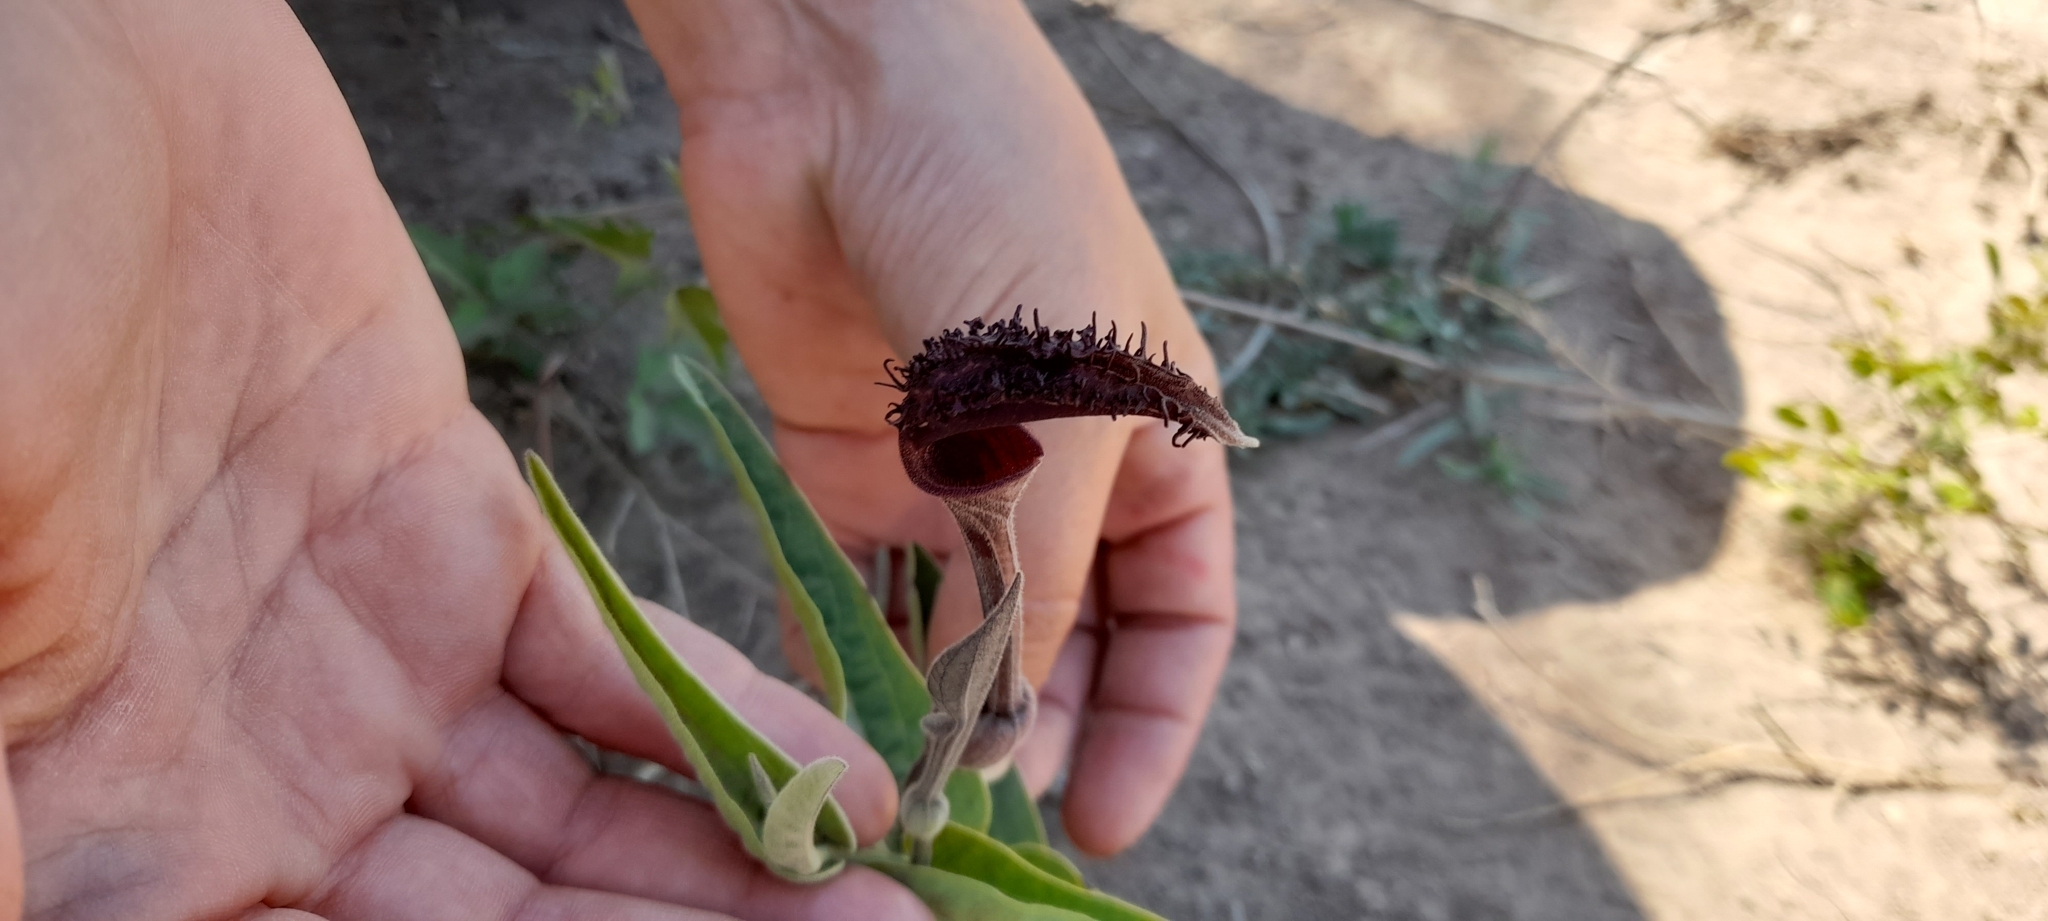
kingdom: Plantae
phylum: Tracheophyta
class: Magnoliopsida
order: Piperales
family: Aristolochiaceae
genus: Aristolochia
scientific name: Aristolochia ceresensis
